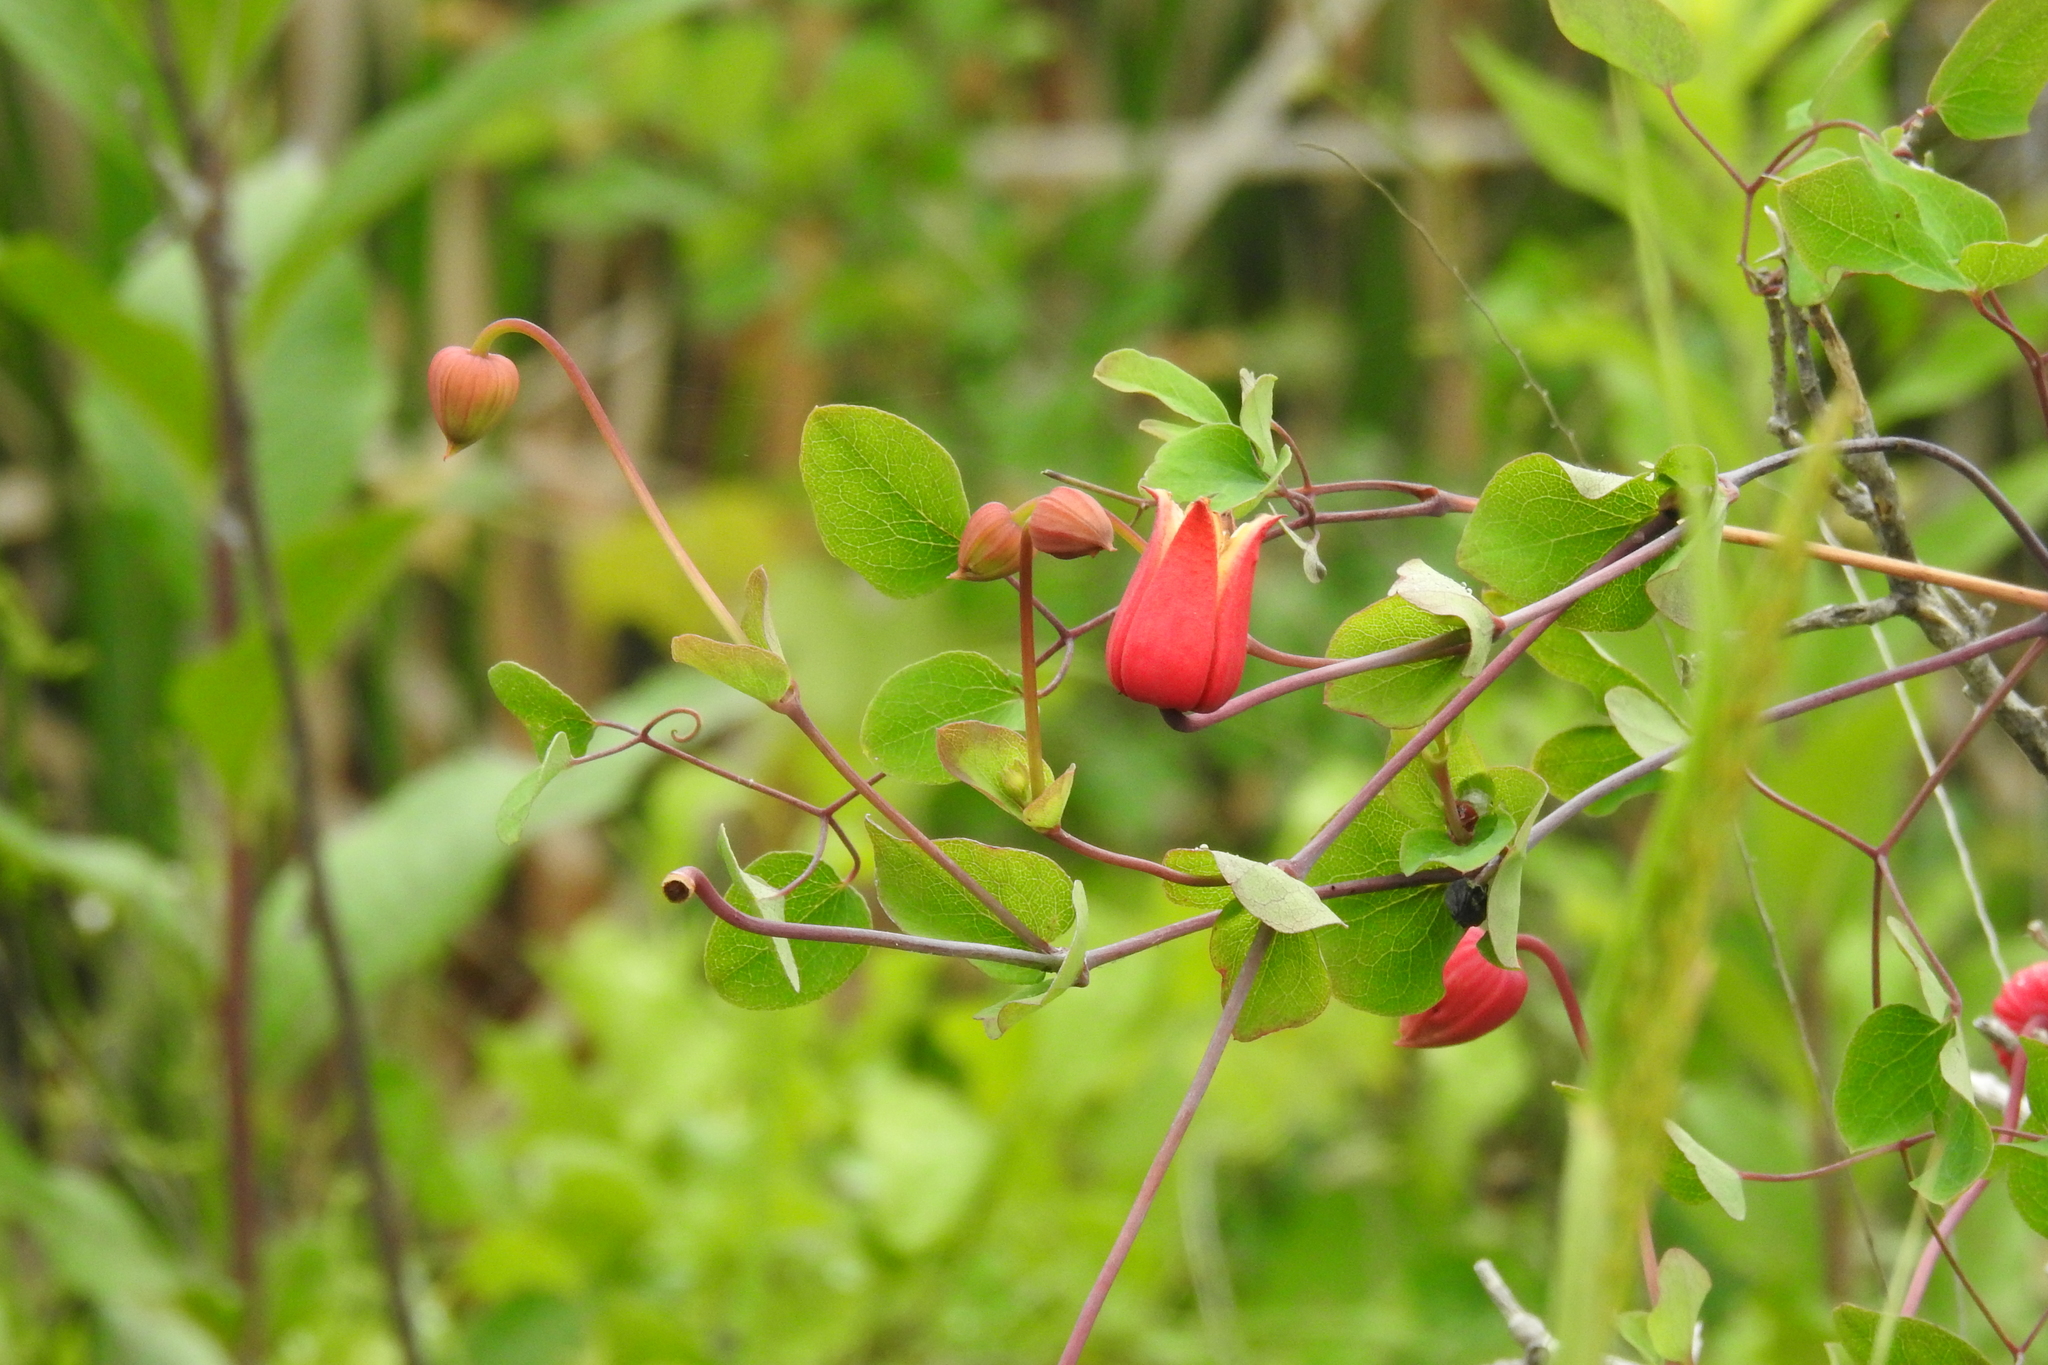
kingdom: Plantae
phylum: Tracheophyta
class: Magnoliopsida
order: Ranunculales
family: Ranunculaceae
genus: Clematis
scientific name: Clematis texensis
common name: Crimson clematis
